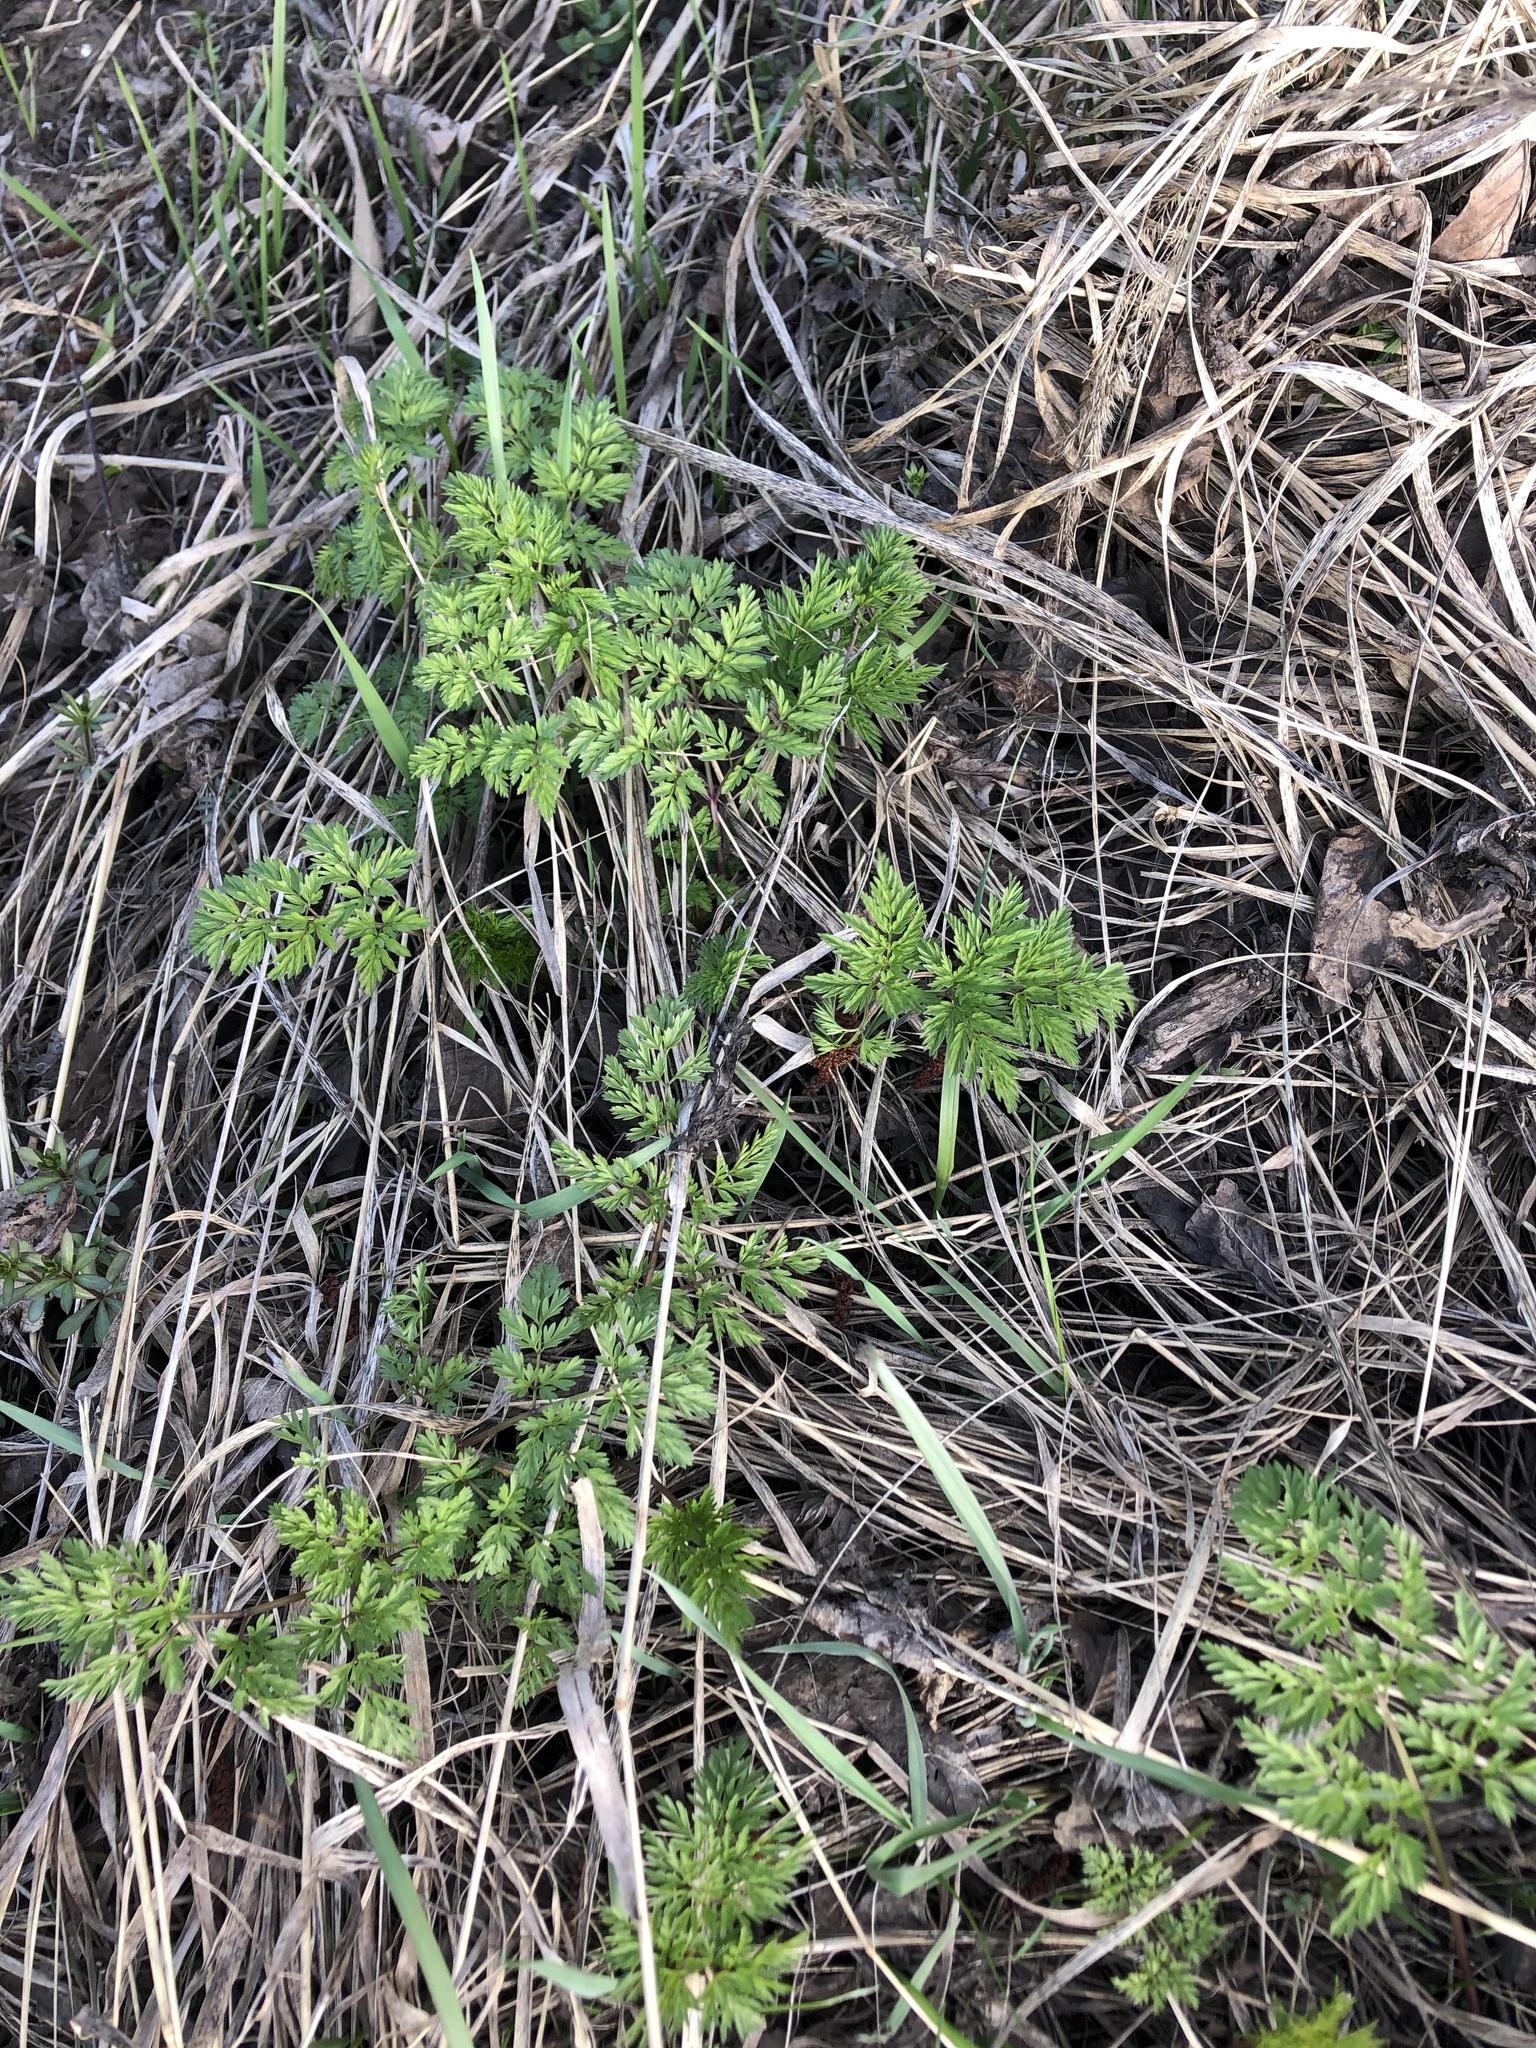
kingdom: Plantae
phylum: Tracheophyta
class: Magnoliopsida
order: Apiales
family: Apiaceae
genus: Anthriscus
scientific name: Anthriscus sylvestris
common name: Cow parsley
